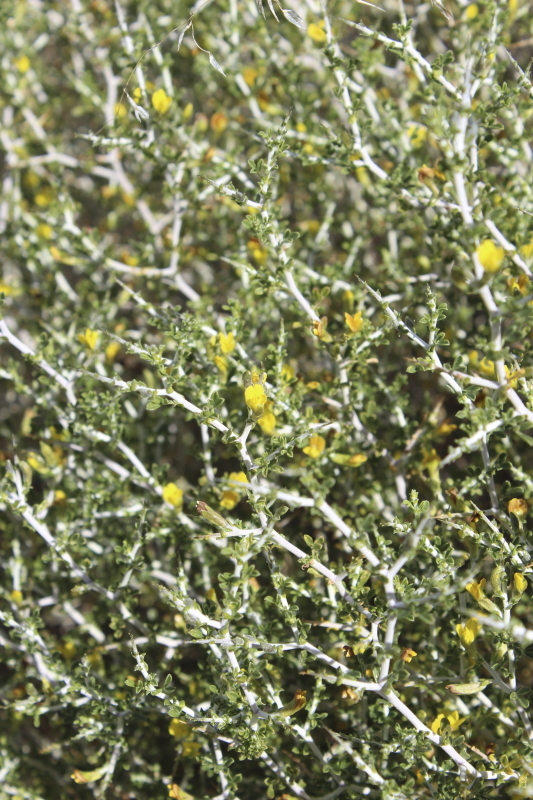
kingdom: Plantae
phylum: Tracheophyta
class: Magnoliopsida
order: Fabales
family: Fabaceae
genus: Melolobium
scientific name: Melolobium candicans
